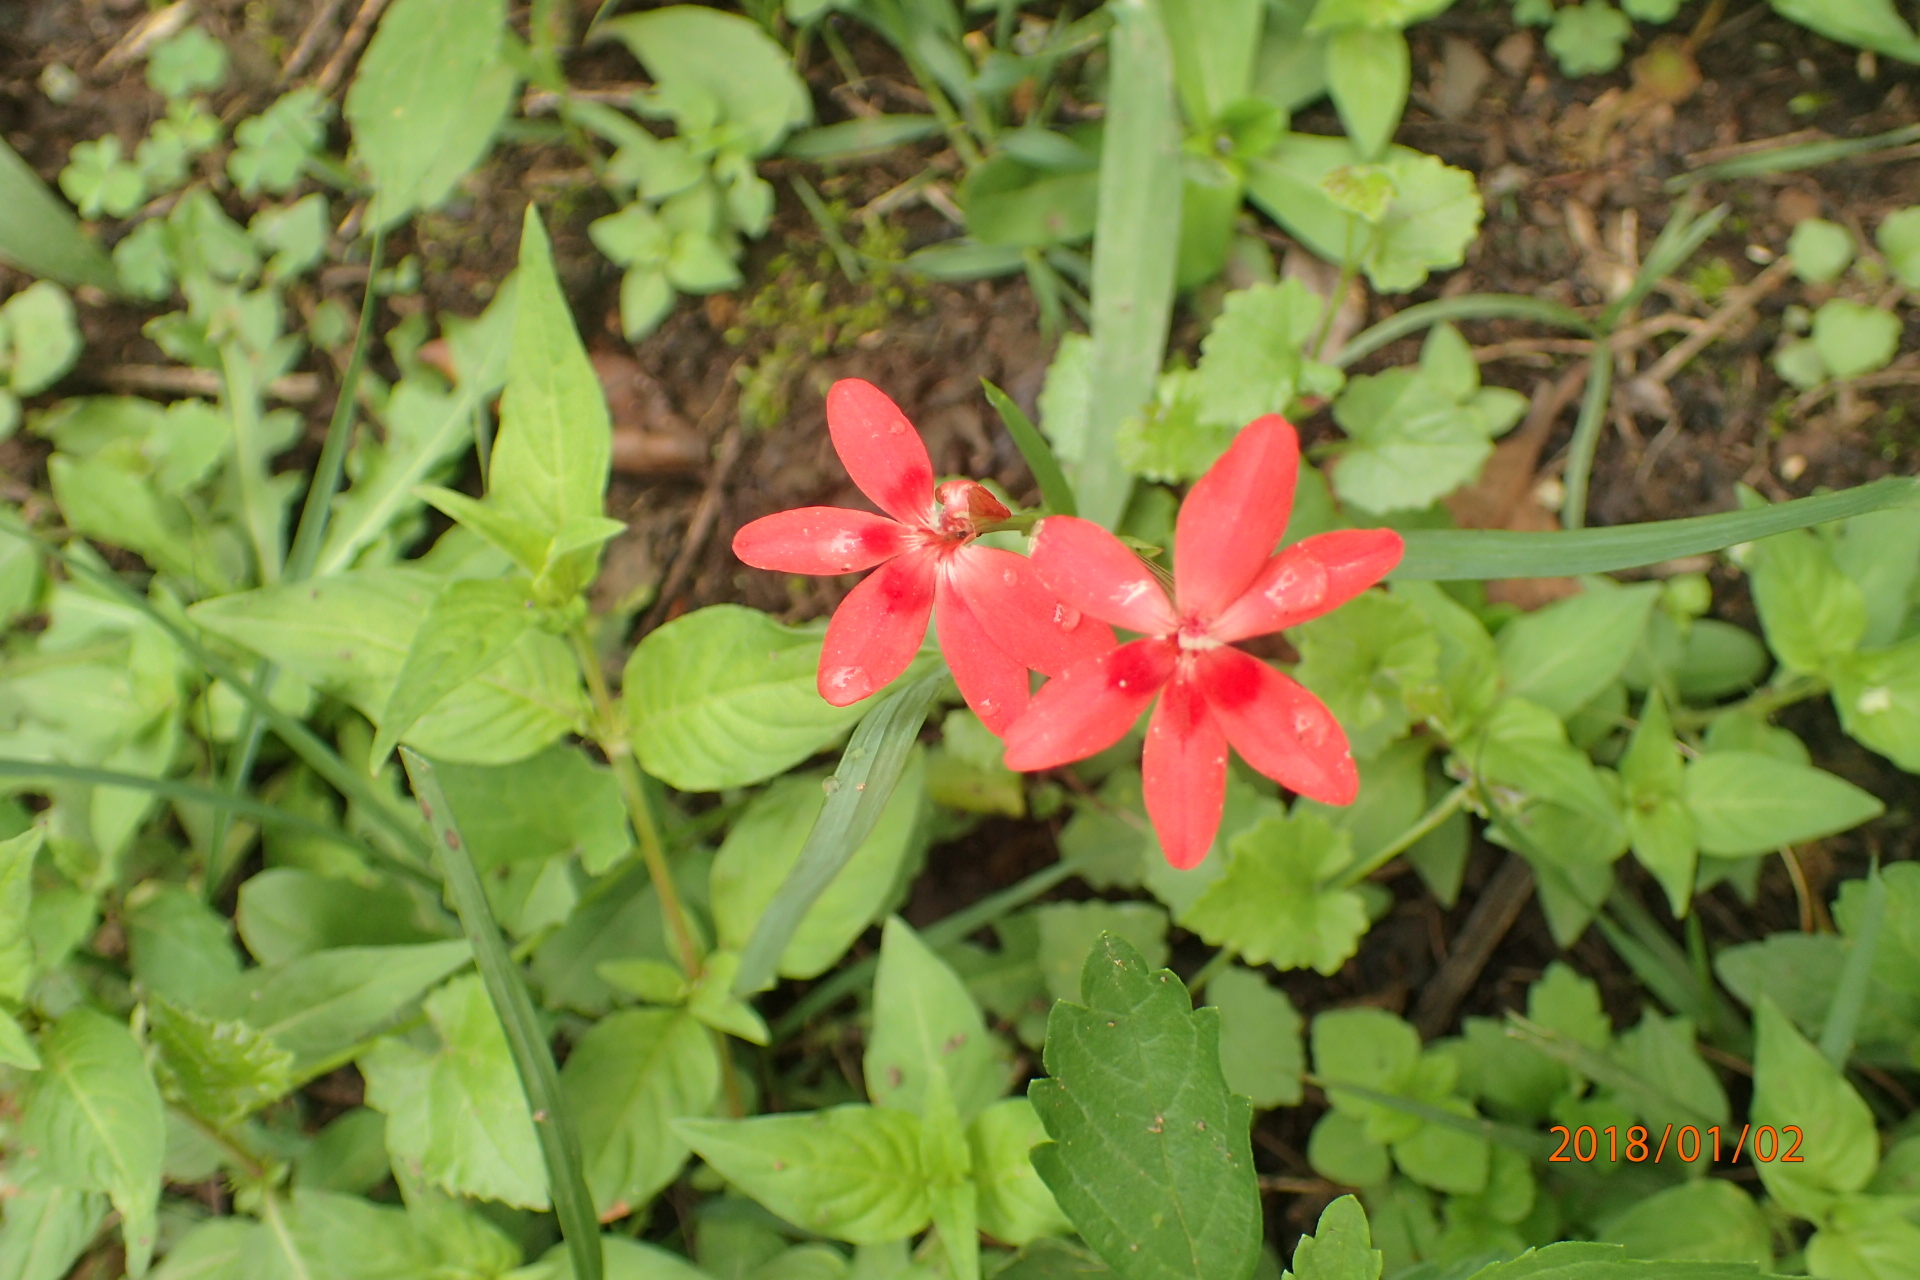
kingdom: Plantae
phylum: Tracheophyta
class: Liliopsida
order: Asparagales
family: Iridaceae
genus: Freesia
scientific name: Freesia laxa
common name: False freesia
